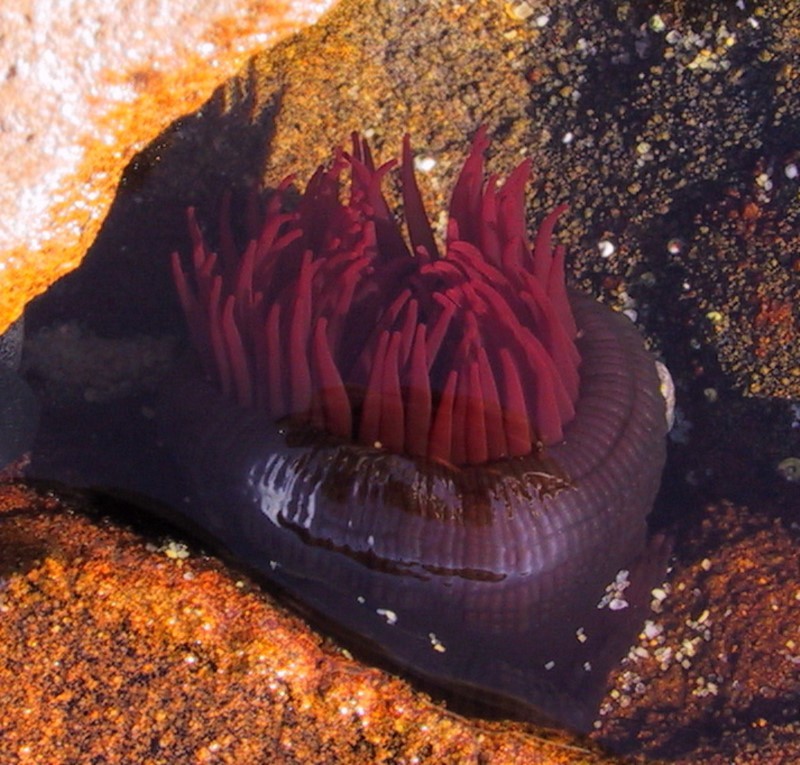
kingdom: Animalia
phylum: Cnidaria
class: Anthozoa
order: Actiniaria
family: Actiniidae
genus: Actinia
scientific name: Actinia tenebrosa
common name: Waratah anemone
